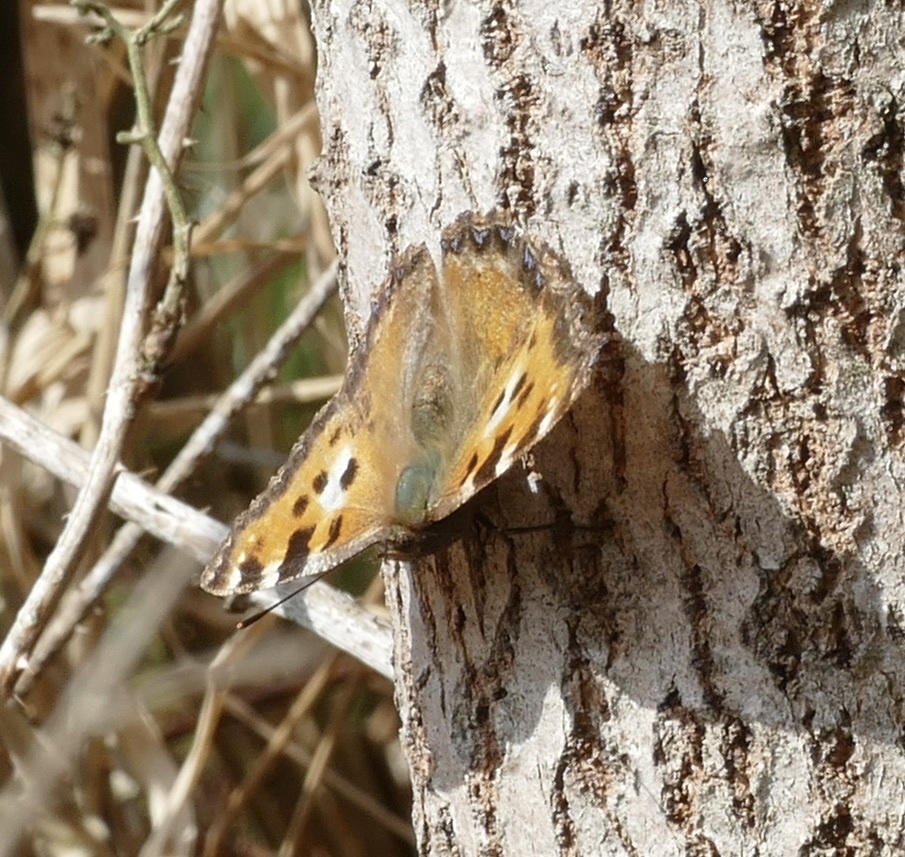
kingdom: Animalia
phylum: Arthropoda
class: Insecta
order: Lepidoptera
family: Nymphalidae
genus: Nymphalis
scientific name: Nymphalis polychloros
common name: Large tortoiseshell
